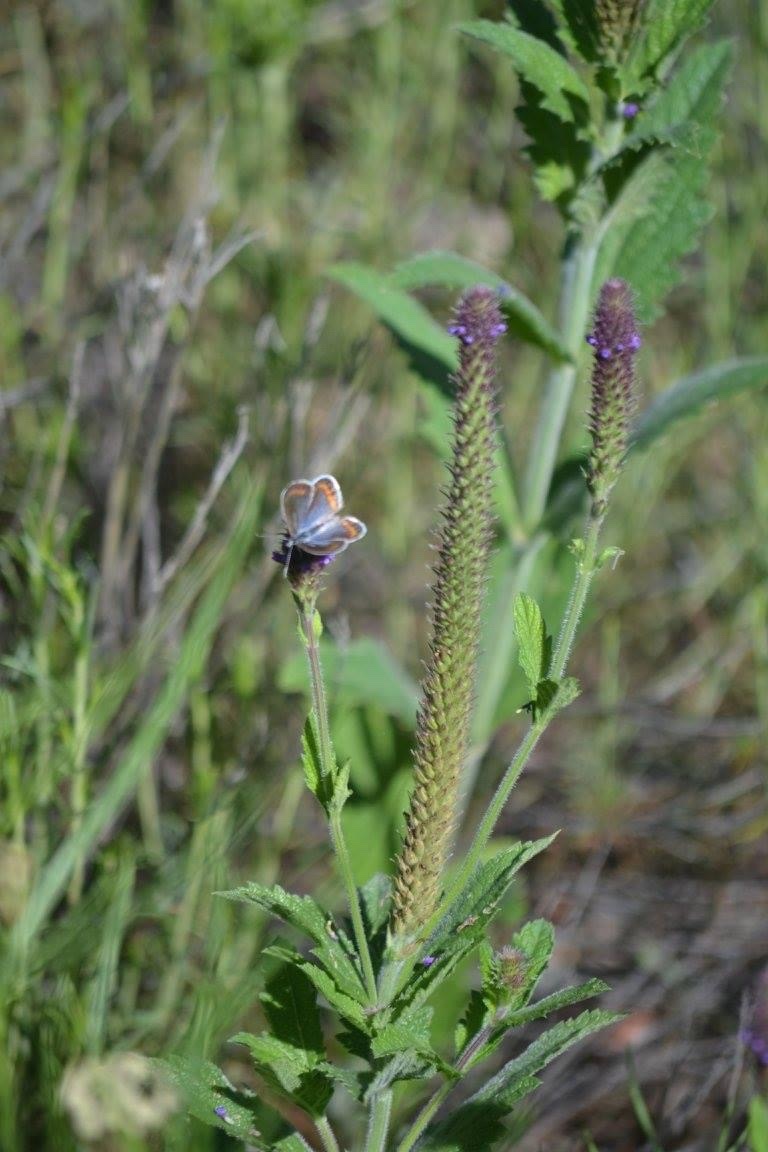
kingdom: Animalia
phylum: Arthropoda
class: Insecta
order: Lepidoptera
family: Lycaenidae
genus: Lycaeides
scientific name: Lycaeides melissa
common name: Melissa blue
